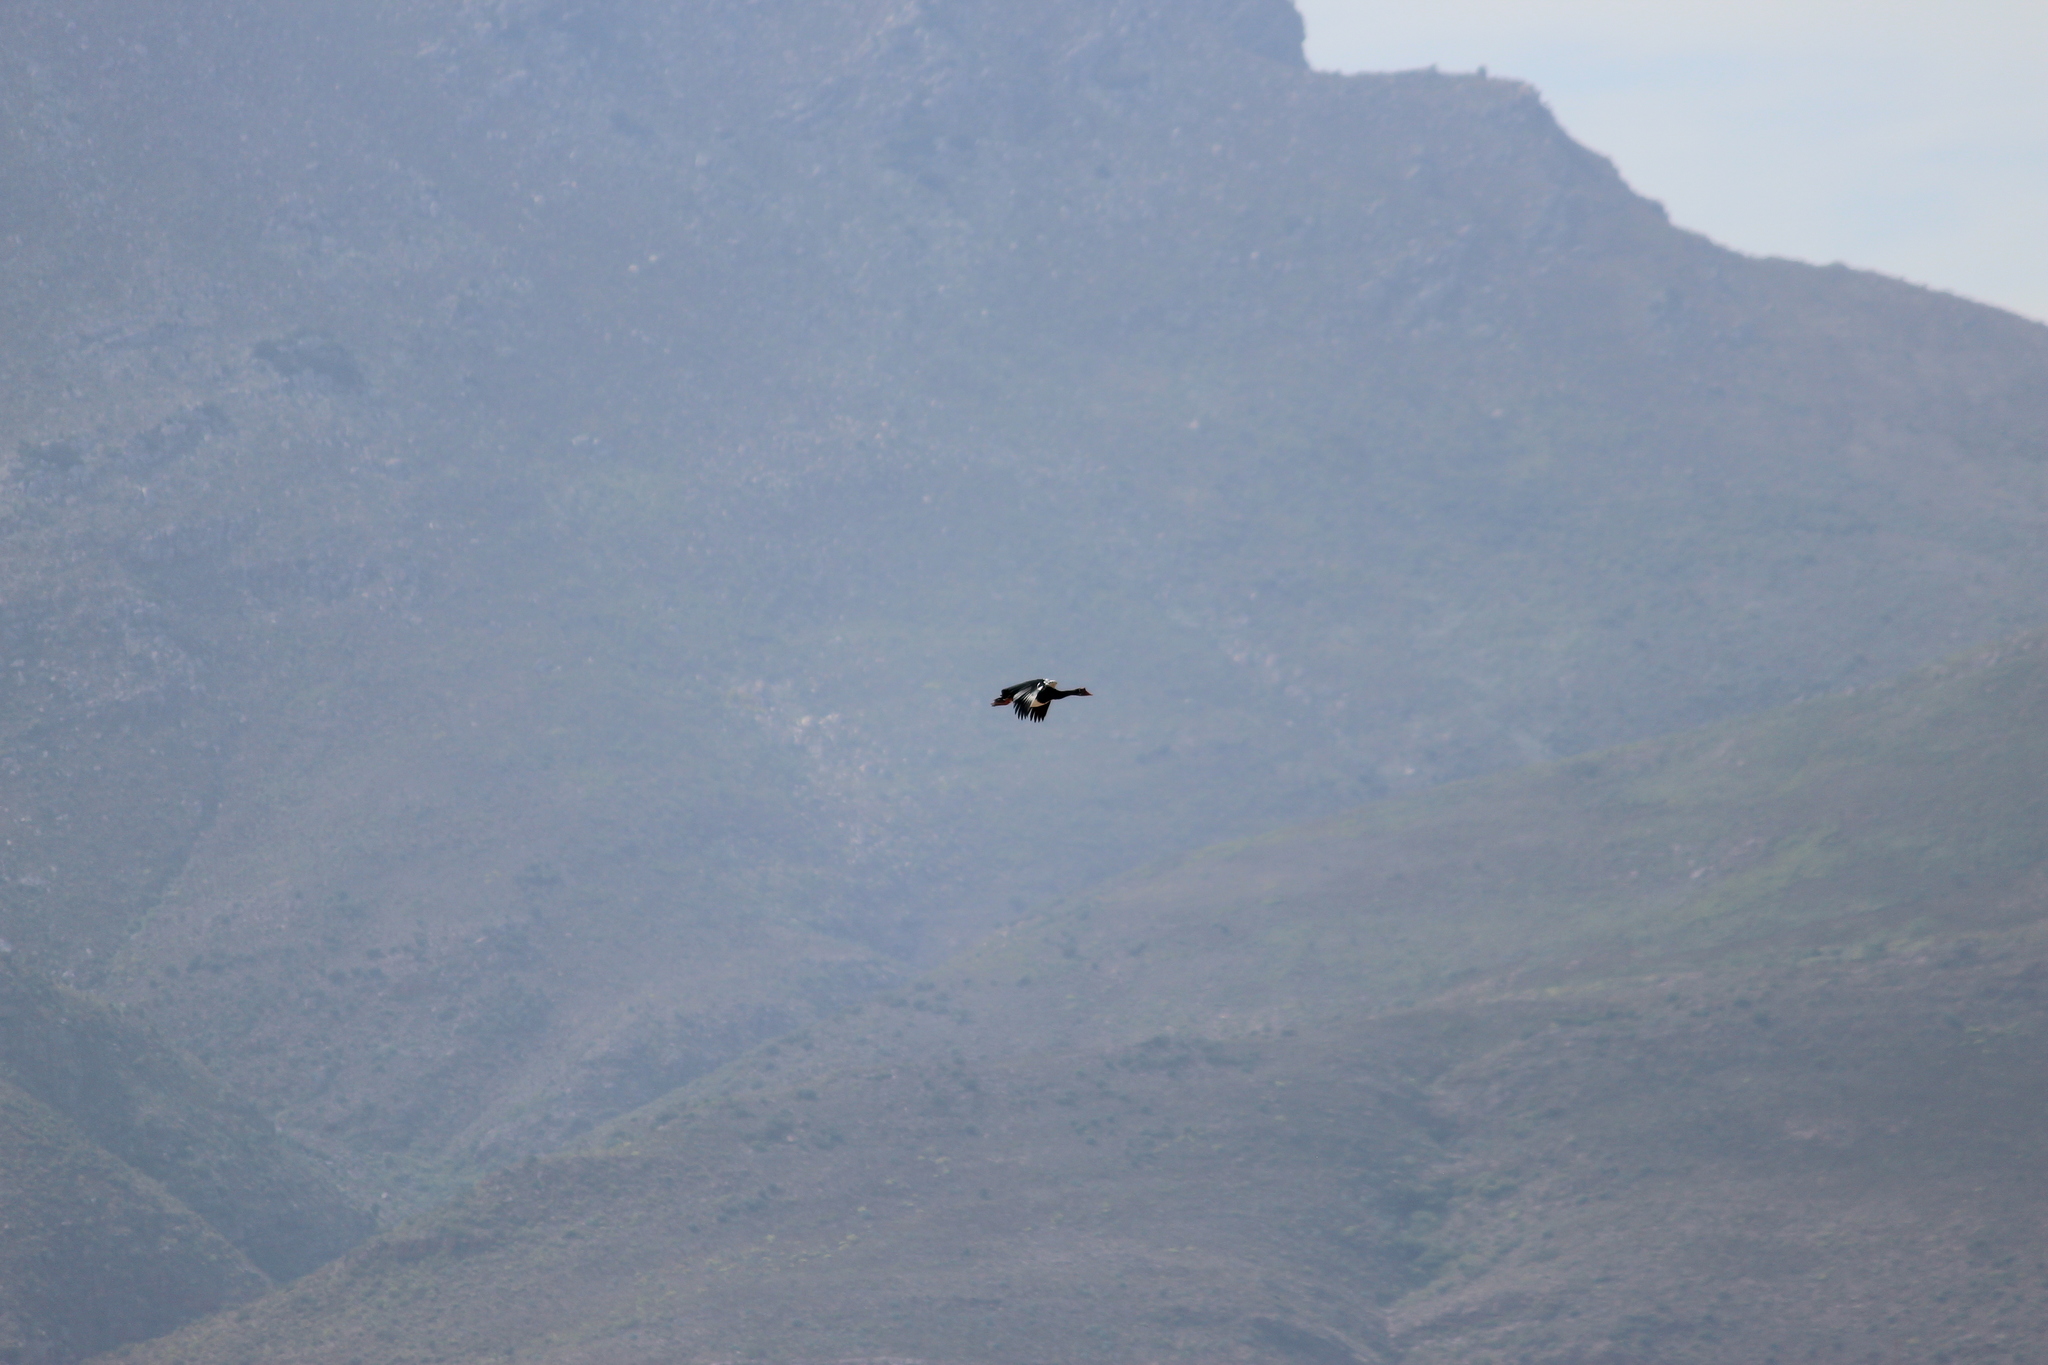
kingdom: Animalia
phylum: Chordata
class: Aves
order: Anseriformes
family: Anatidae
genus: Plectropterus
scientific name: Plectropterus gambensis
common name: Spur-winged goose
